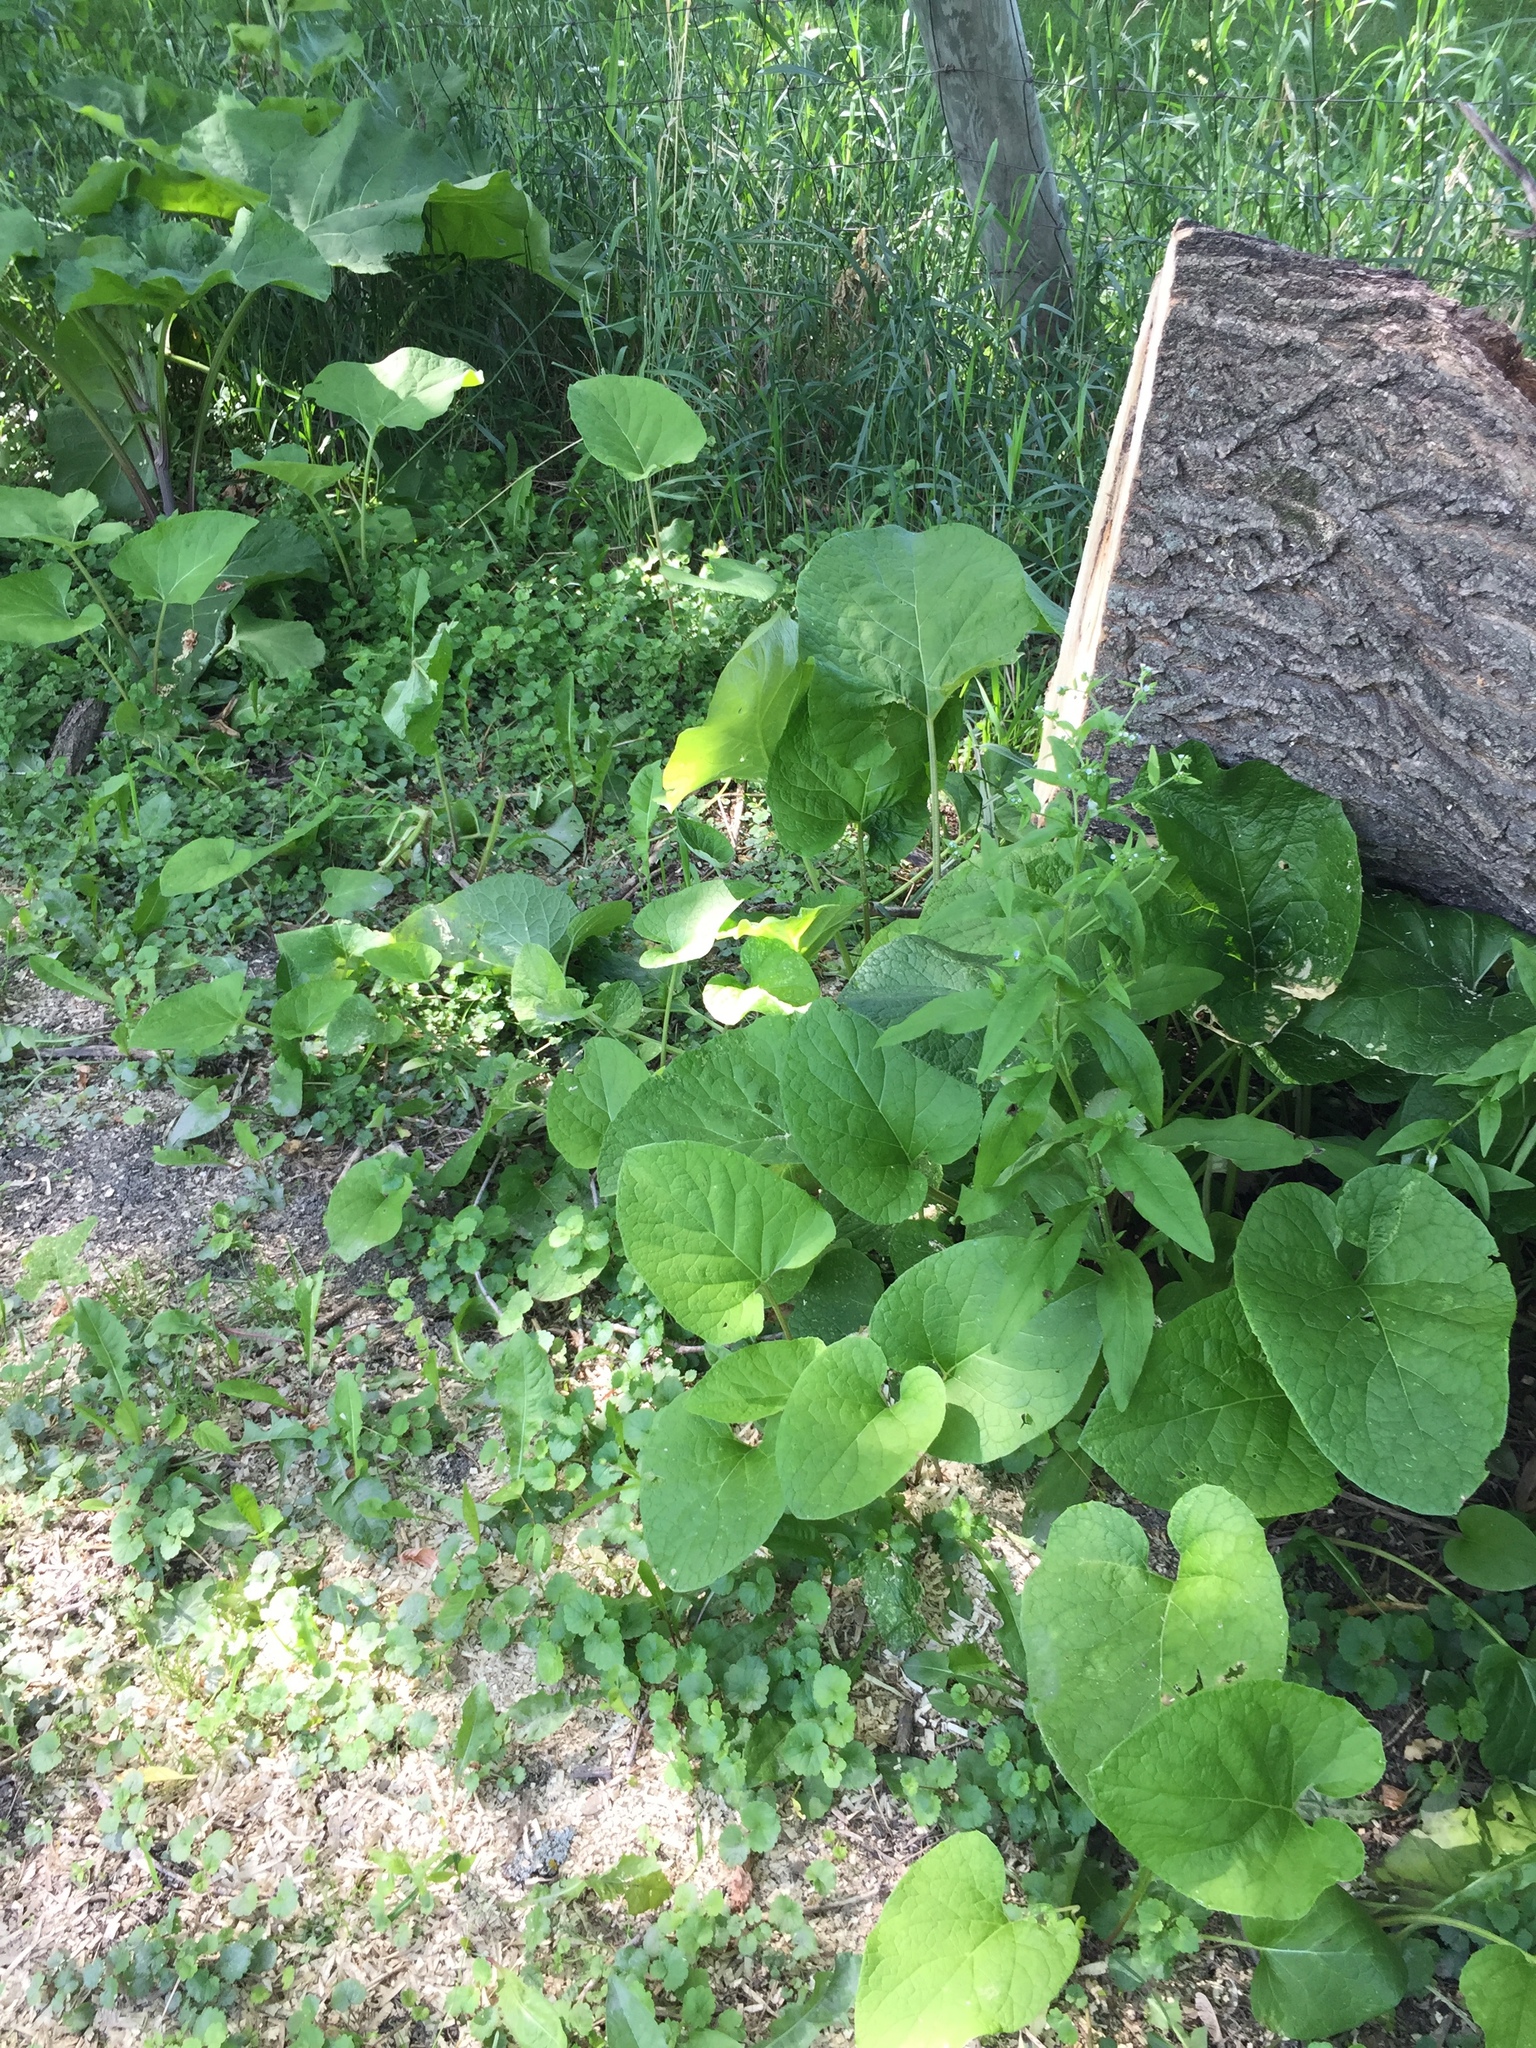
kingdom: Plantae
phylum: Tracheophyta
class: Magnoliopsida
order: Boraginales
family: Boraginaceae
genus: Hackelia
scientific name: Hackelia deflexa
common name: Nodding stickseed
